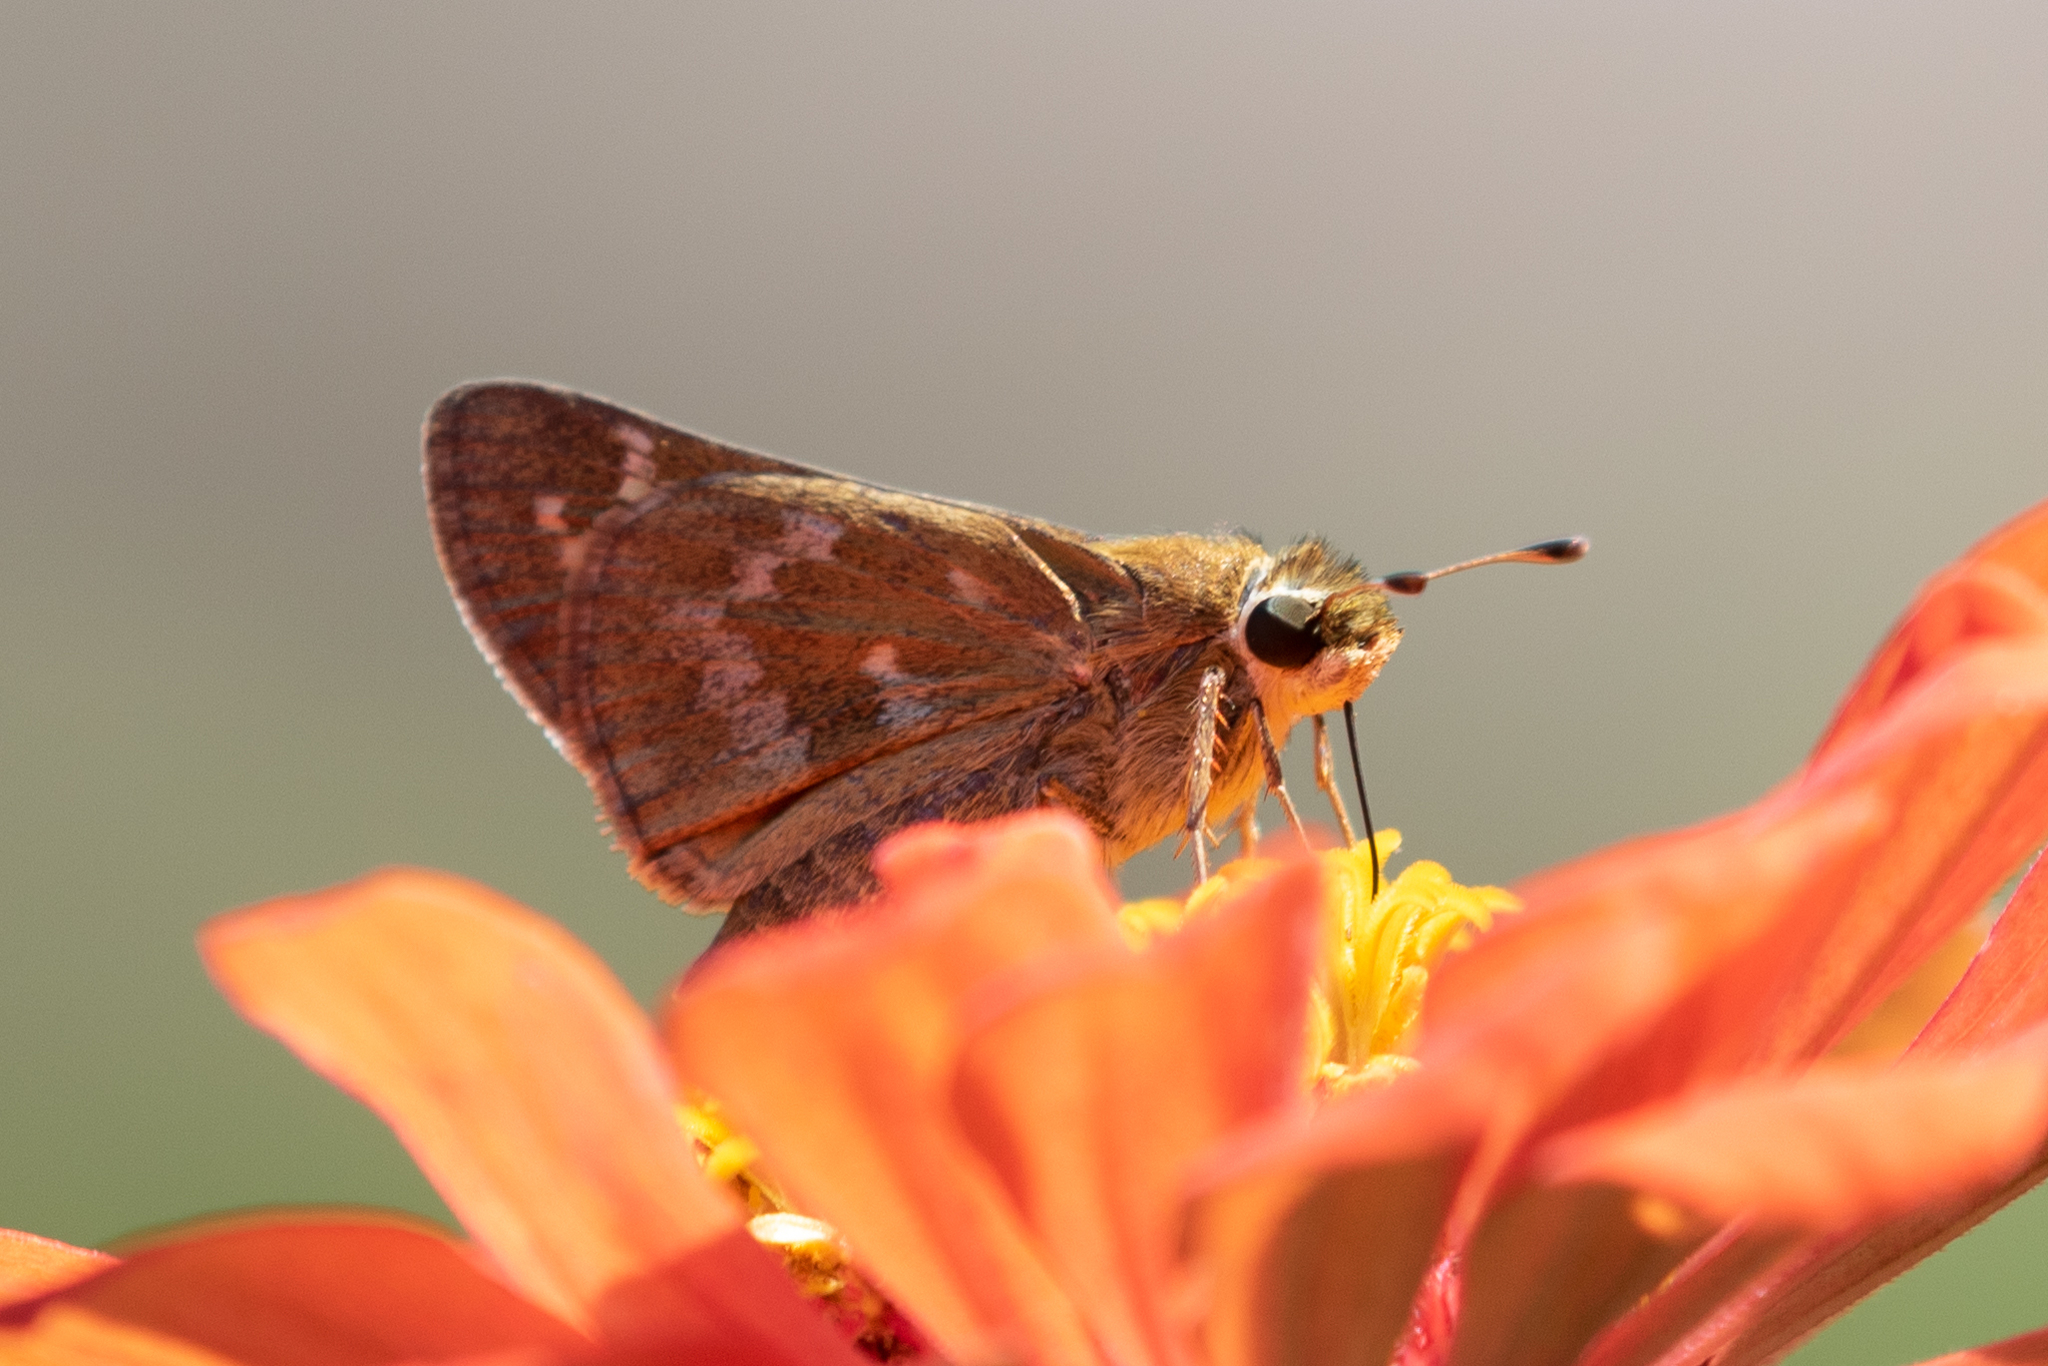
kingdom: Animalia
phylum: Arthropoda
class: Insecta
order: Lepidoptera
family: Hesperiidae
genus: Atalopedes
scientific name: Atalopedes
